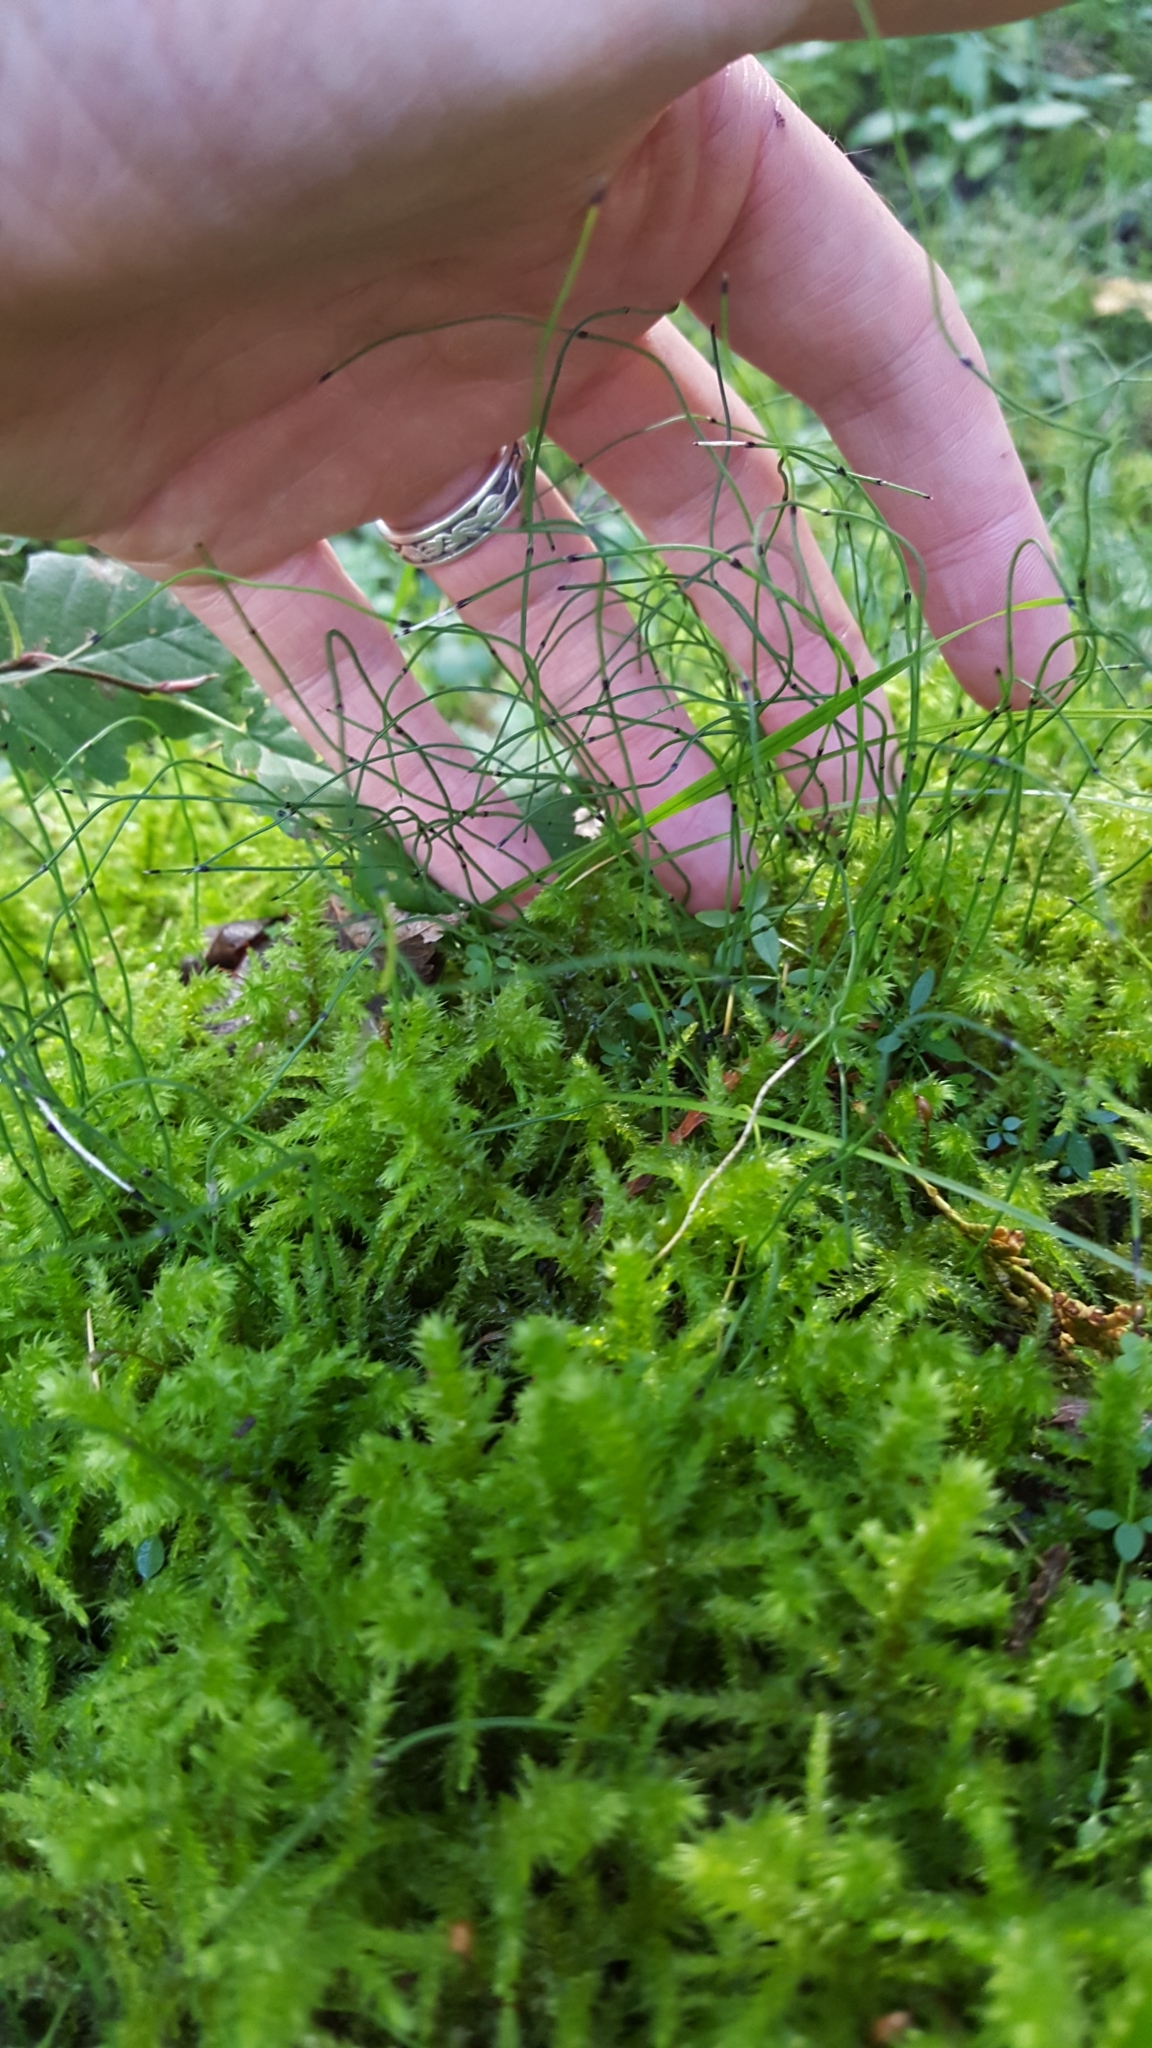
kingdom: Plantae
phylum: Tracheophyta
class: Polypodiopsida
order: Equisetales
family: Equisetaceae
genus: Equisetum
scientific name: Equisetum scirpoides
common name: Delicate horsetail
